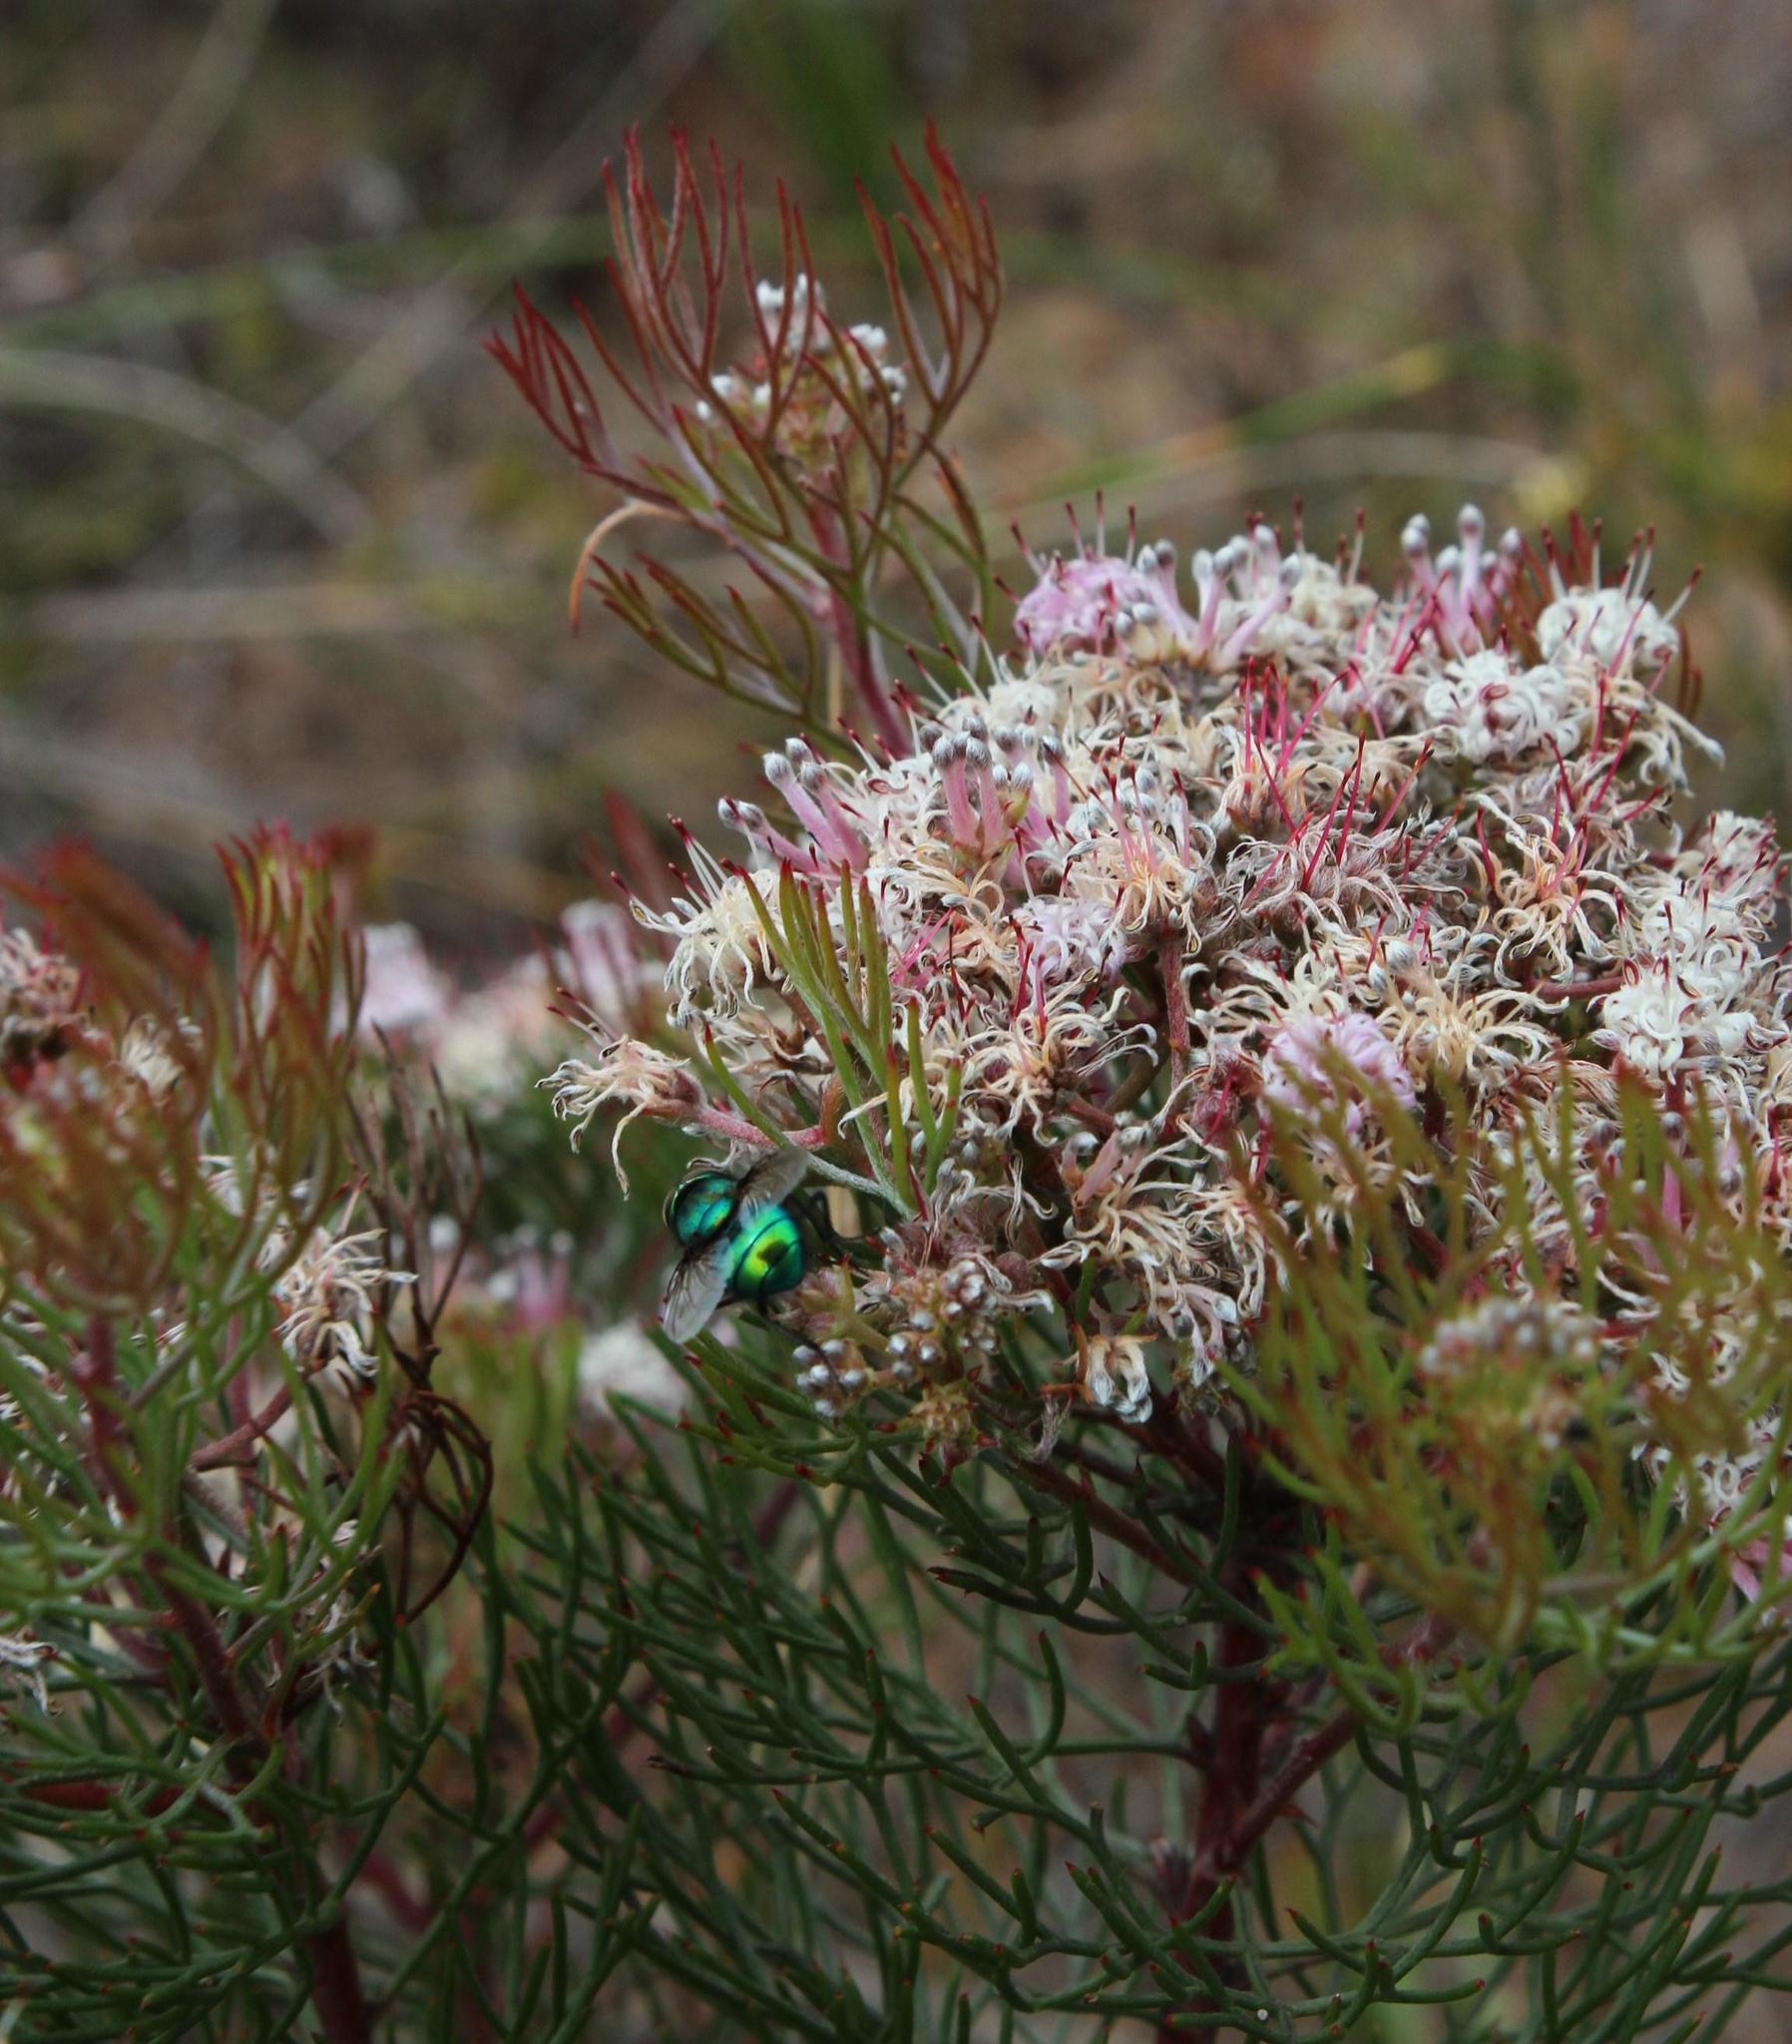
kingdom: Plantae
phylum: Tracheophyta
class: Magnoliopsida
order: Proteales
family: Proteaceae
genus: Serruria
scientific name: Serruria fasciflora
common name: Common pin spiderhead
